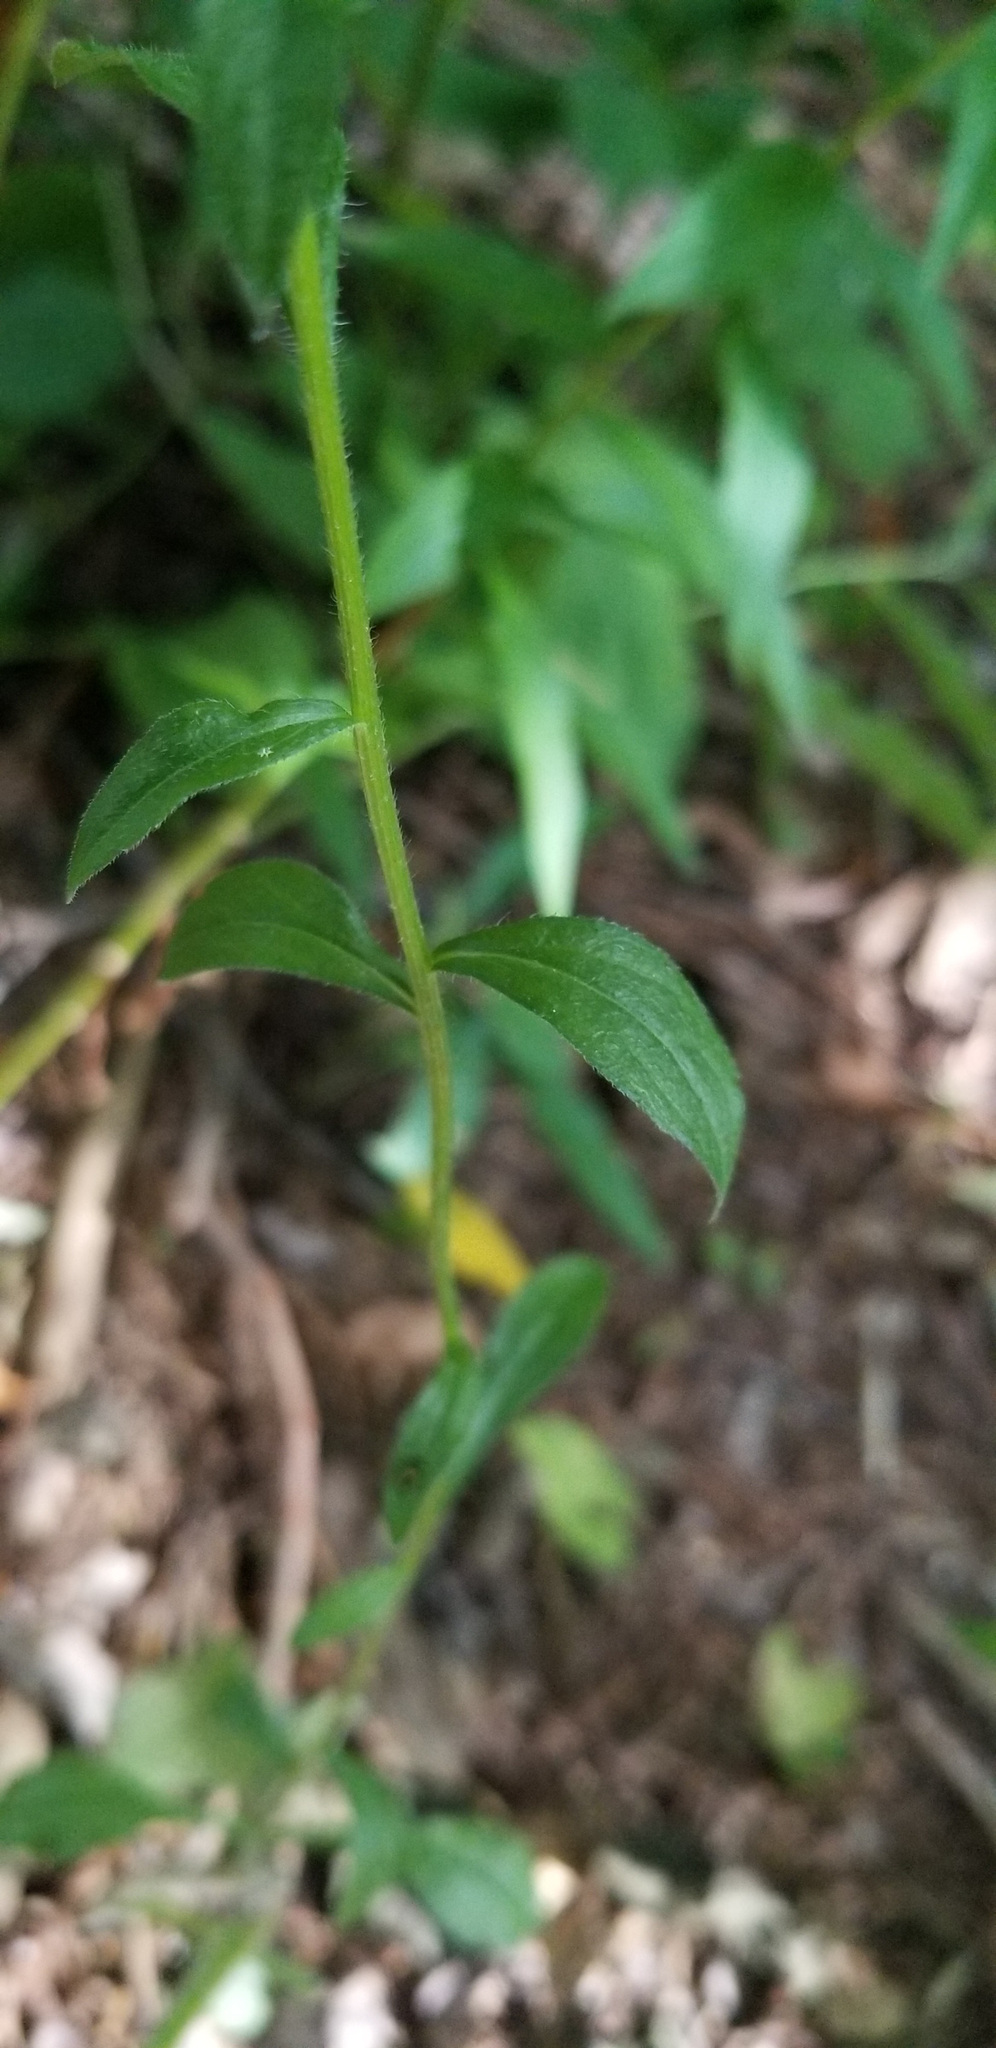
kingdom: Plantae
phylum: Tracheophyta
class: Magnoliopsida
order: Asterales
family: Asteraceae
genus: Erigeron
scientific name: Erigeron strigosus
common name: Common eastern fleabane
